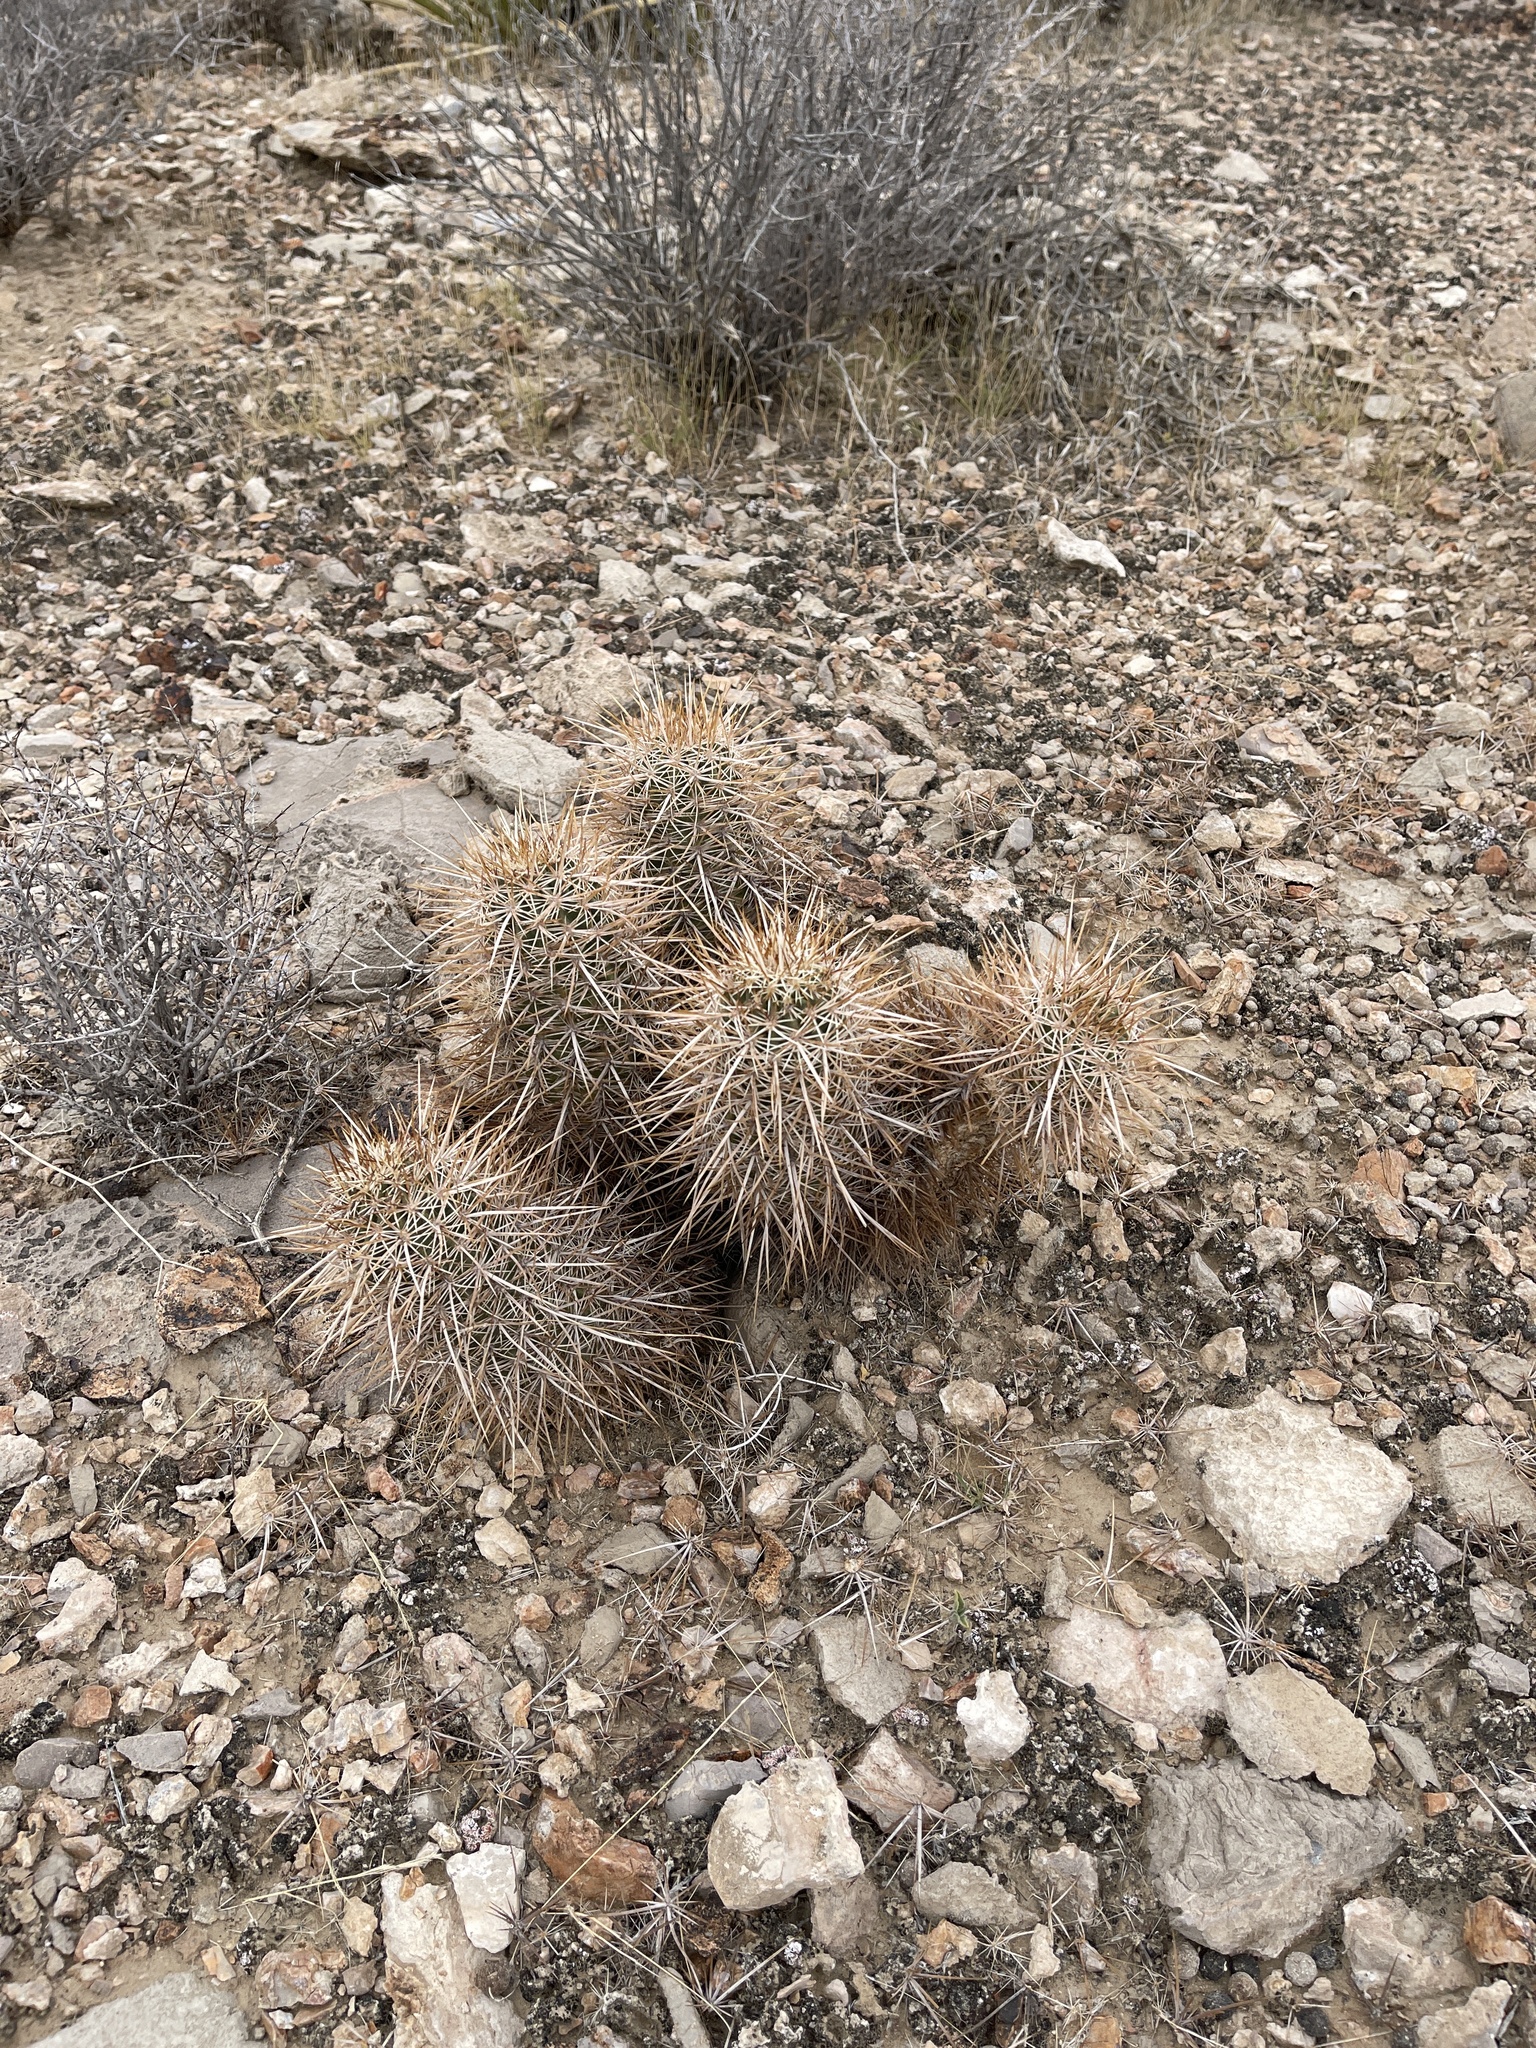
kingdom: Plantae
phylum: Tracheophyta
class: Magnoliopsida
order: Caryophyllales
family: Cactaceae
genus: Echinocereus
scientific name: Echinocereus engelmannii
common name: Engelmann's hedgehog cactus
